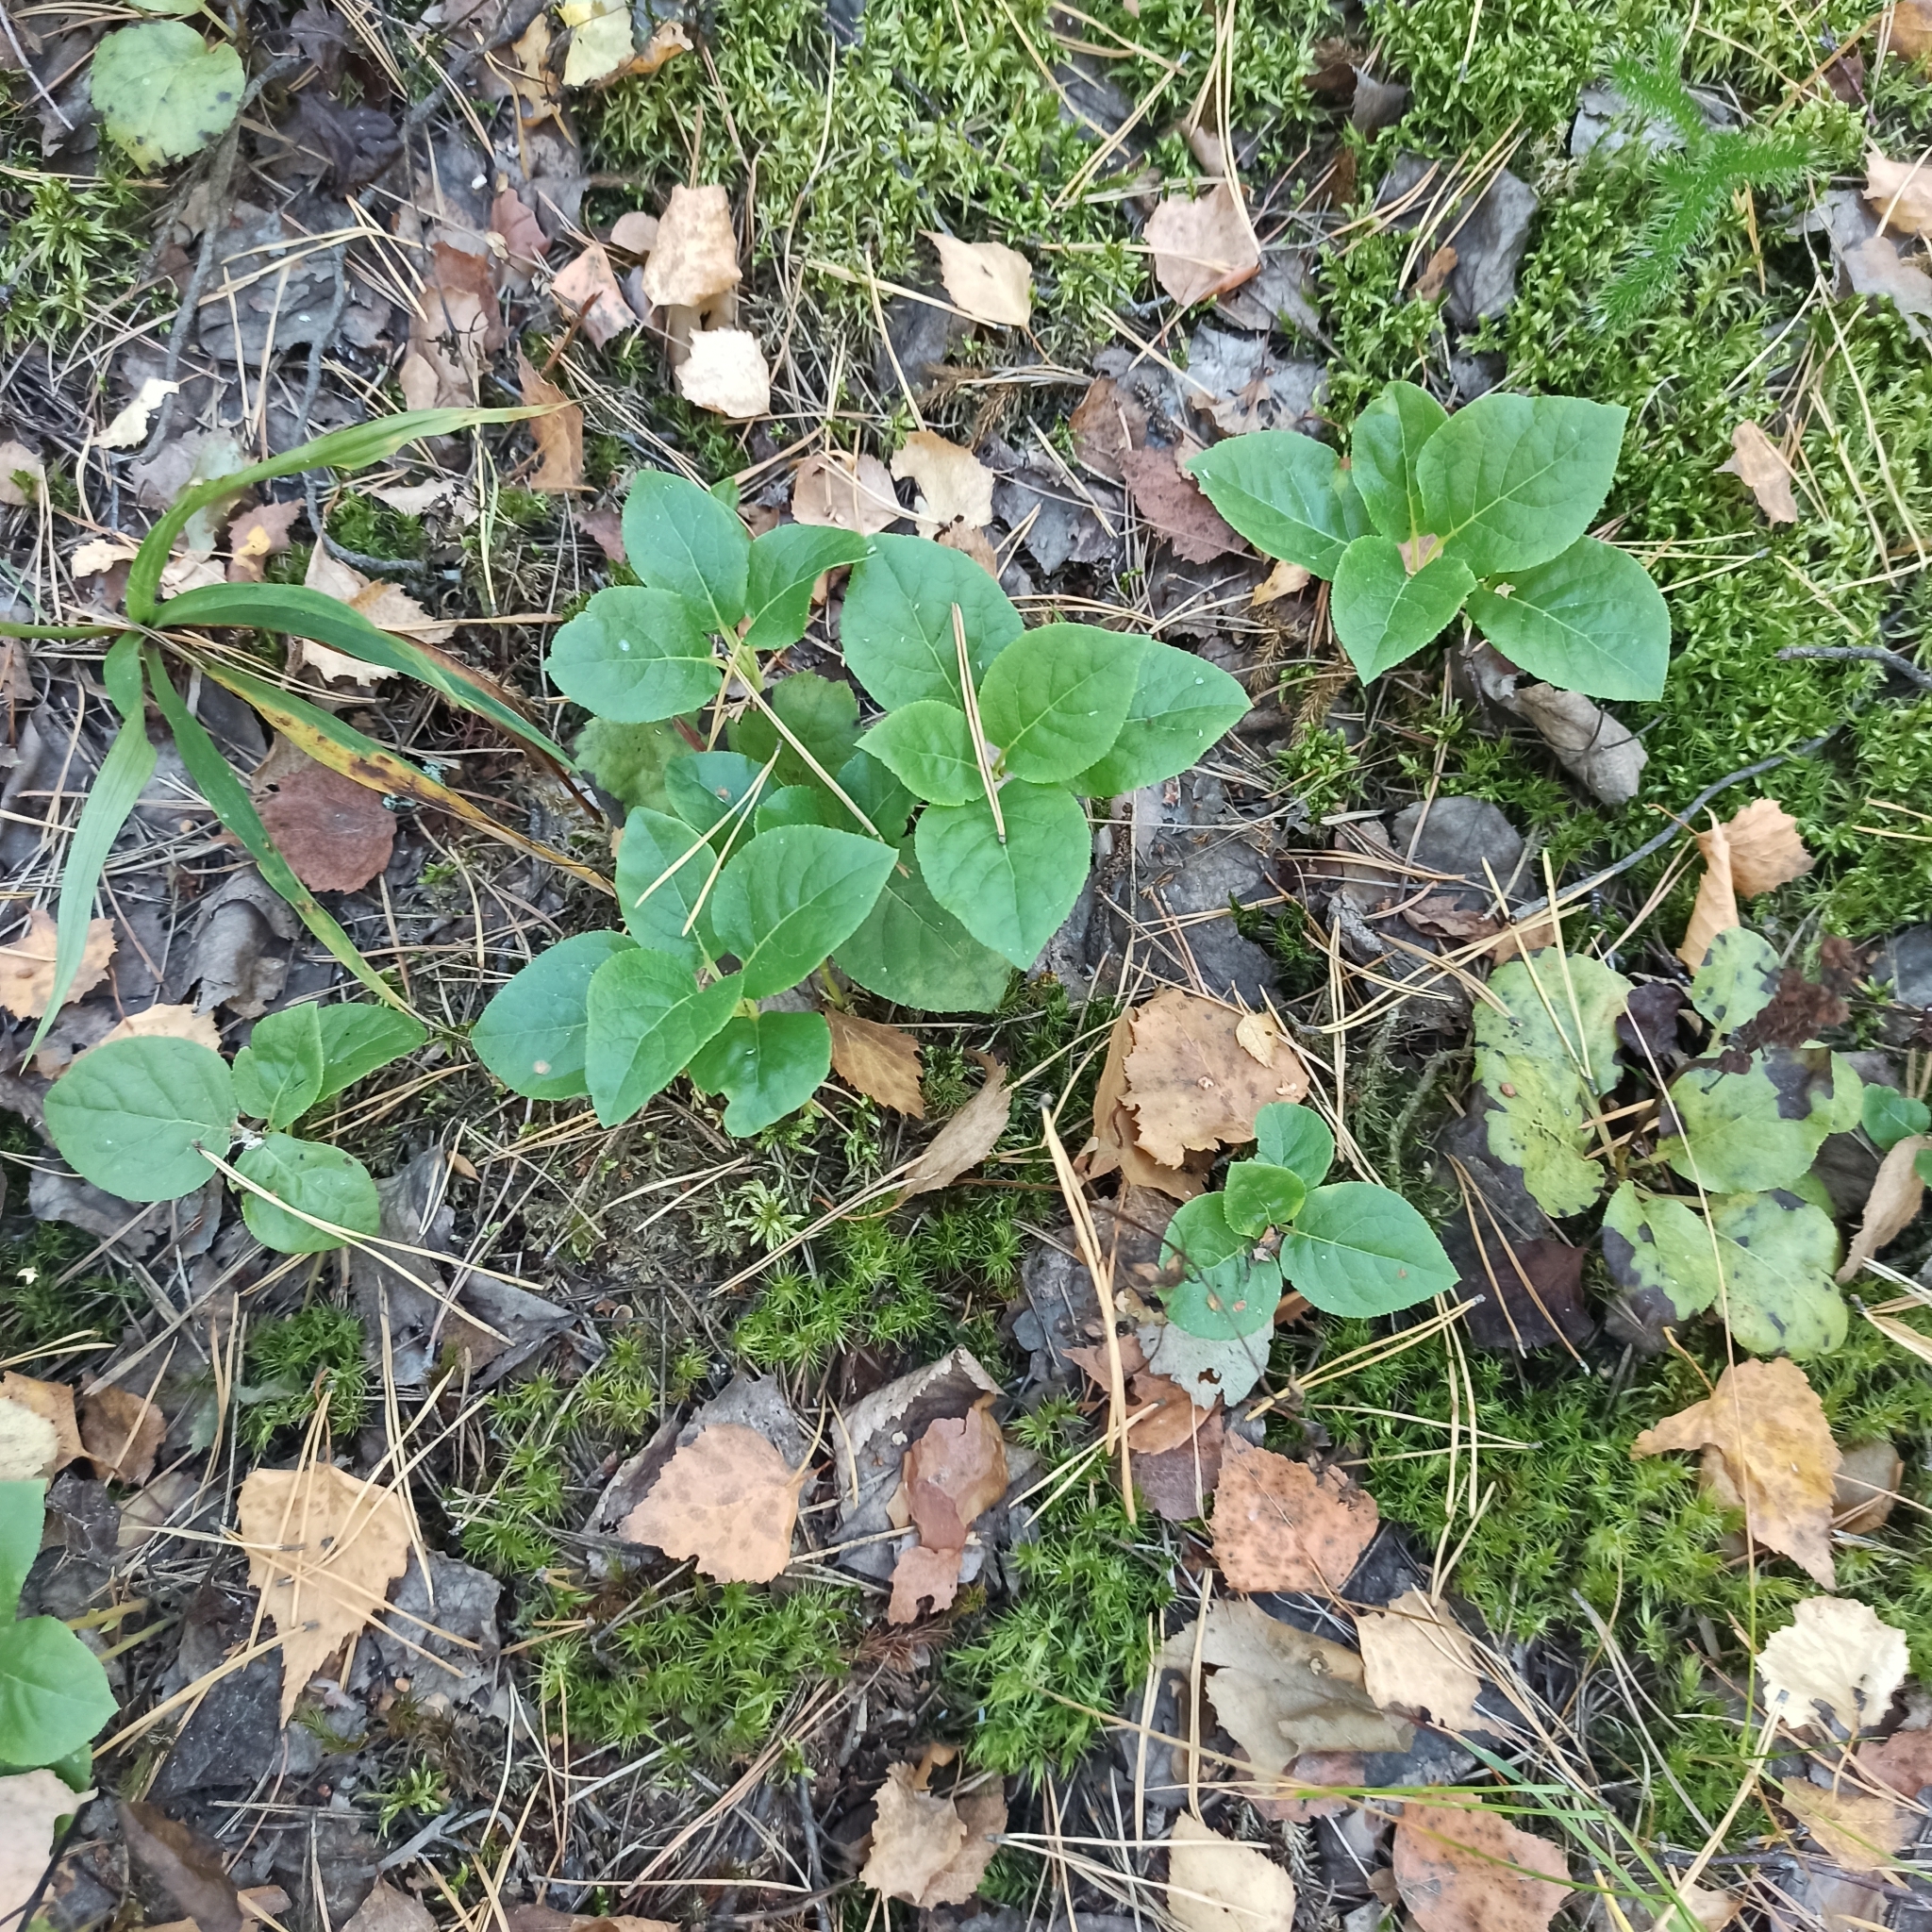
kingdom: Plantae
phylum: Tracheophyta
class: Magnoliopsida
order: Ericales
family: Ericaceae
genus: Orthilia
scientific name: Orthilia secunda
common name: One-sided orthilia
